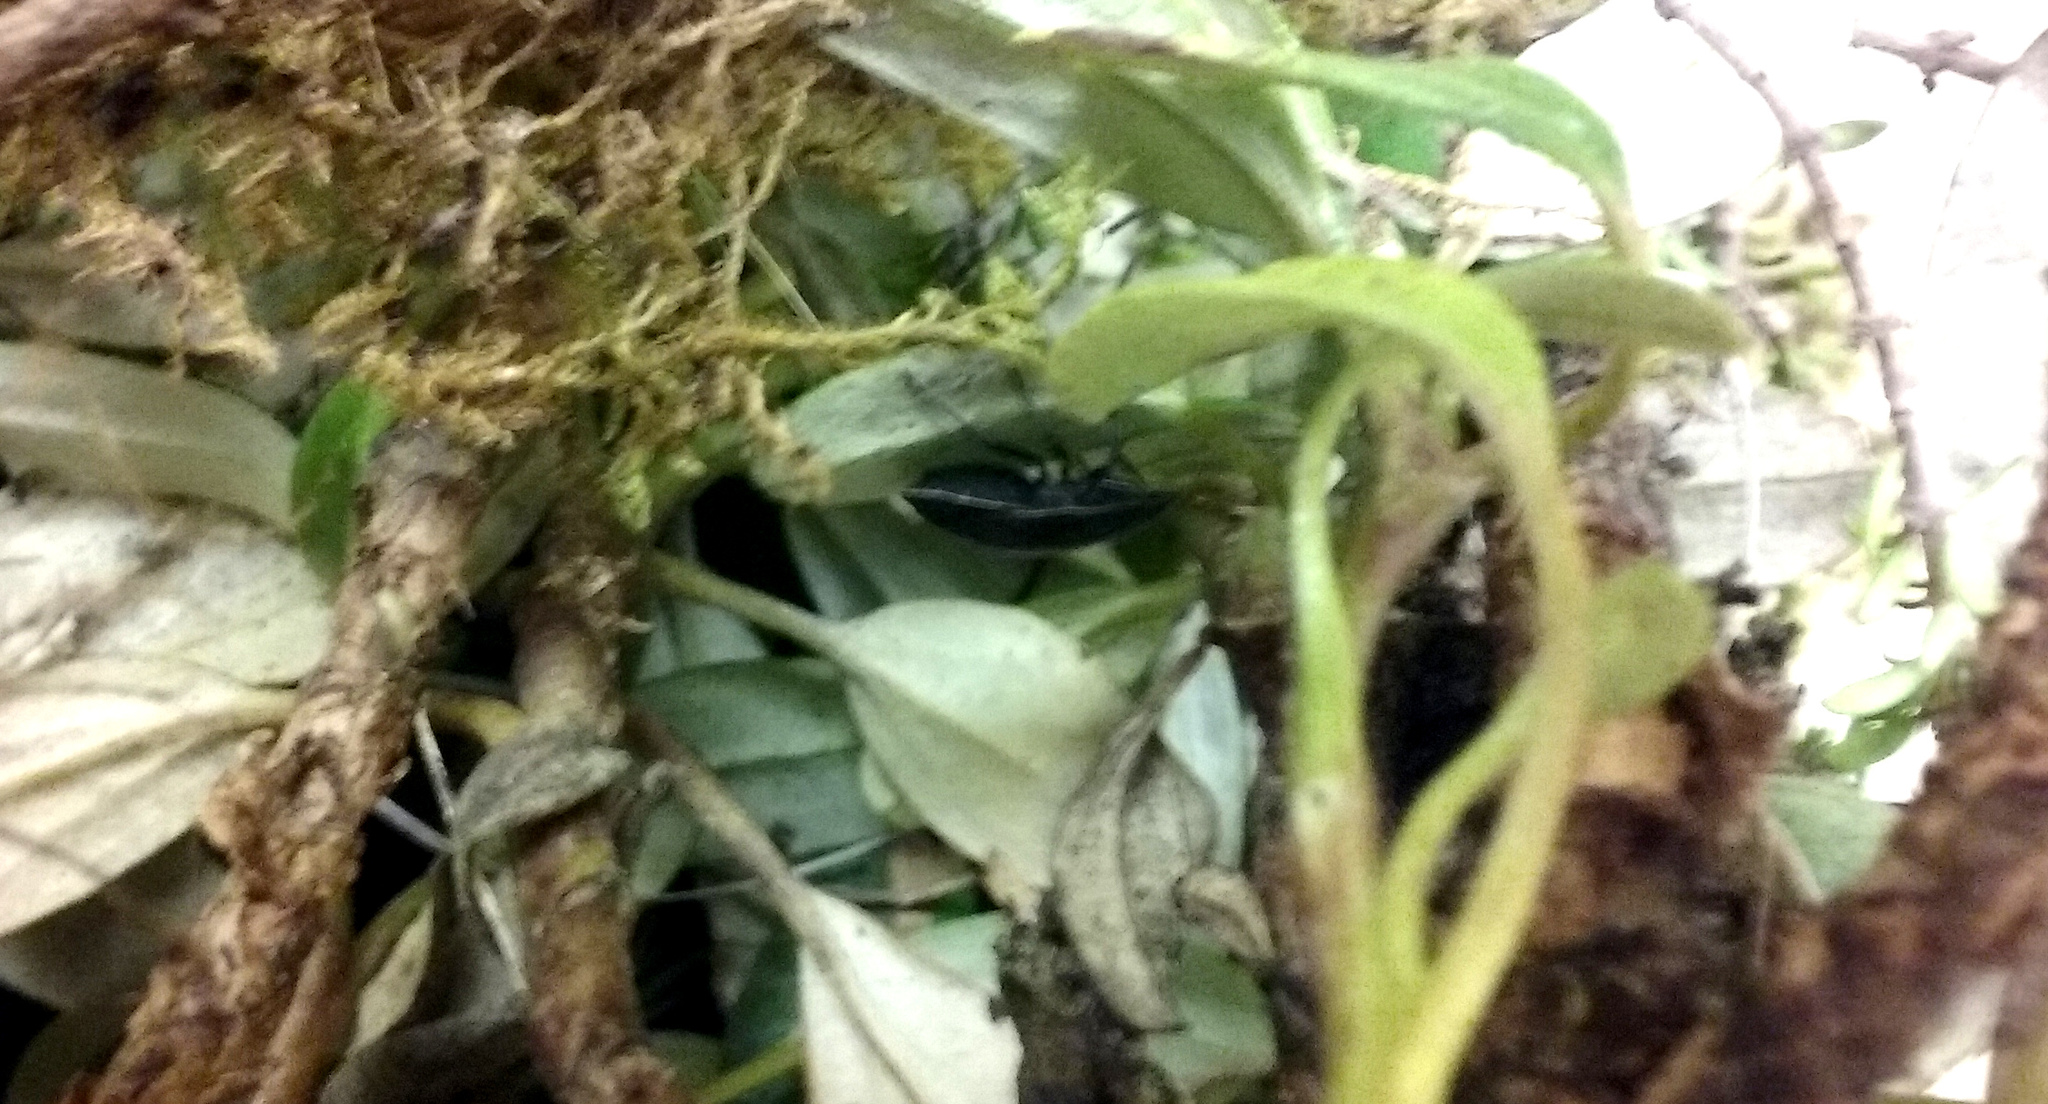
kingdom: Animalia
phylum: Arthropoda
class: Insecta
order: Hemiptera
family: Pentatomidae
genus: Hypsithocus
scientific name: Hypsithocus hudsonae
